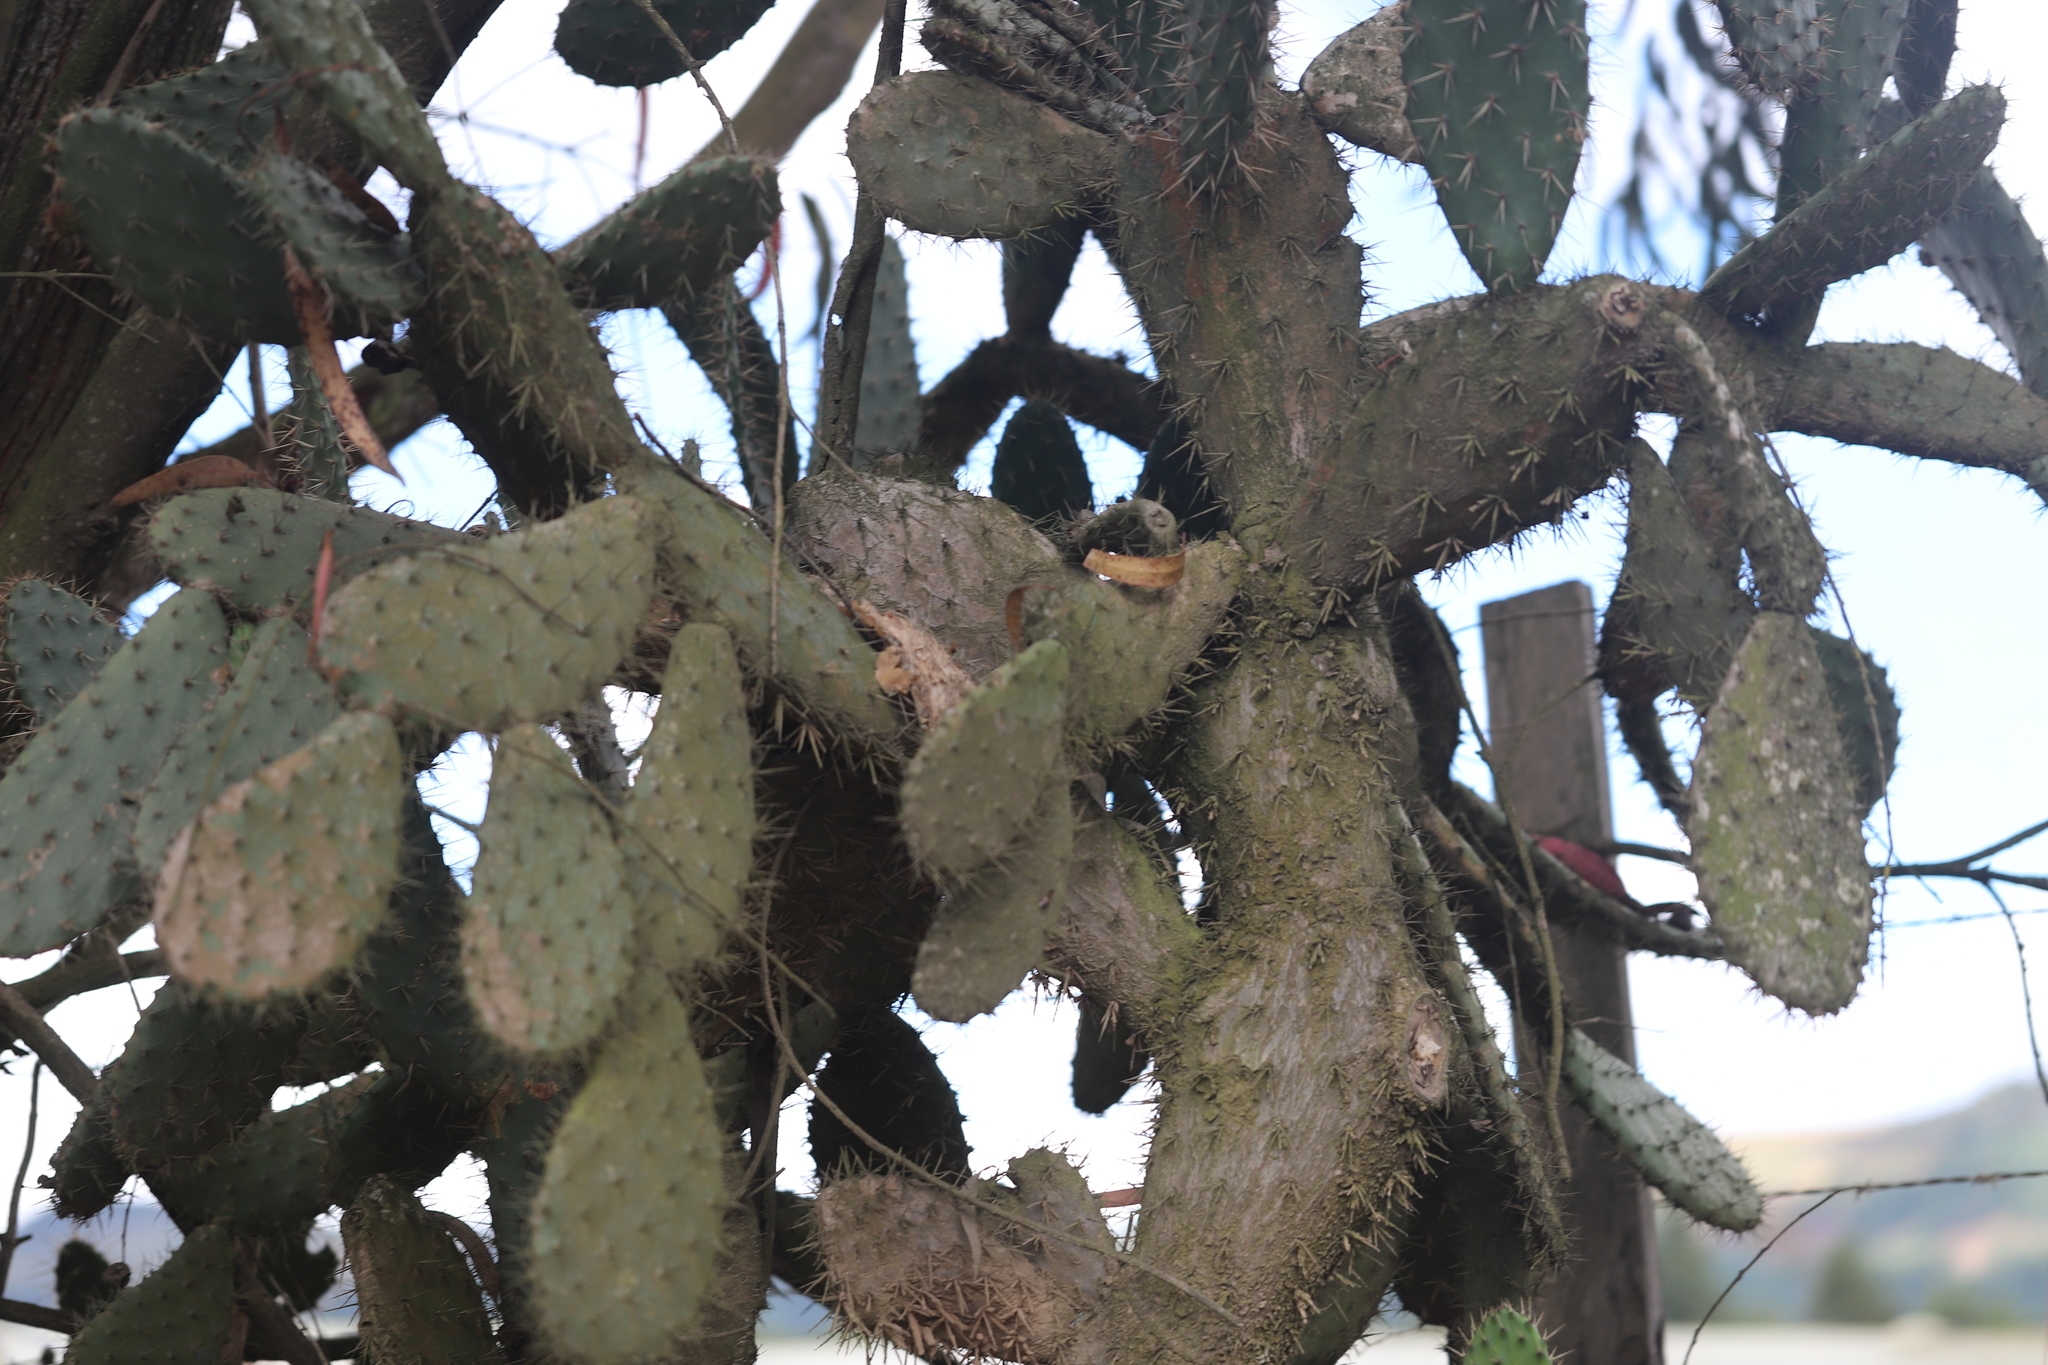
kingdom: Plantae
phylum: Tracheophyta
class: Magnoliopsida
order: Caryophyllales
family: Cactaceae
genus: Opuntia
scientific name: Opuntia elatior
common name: Tuna
